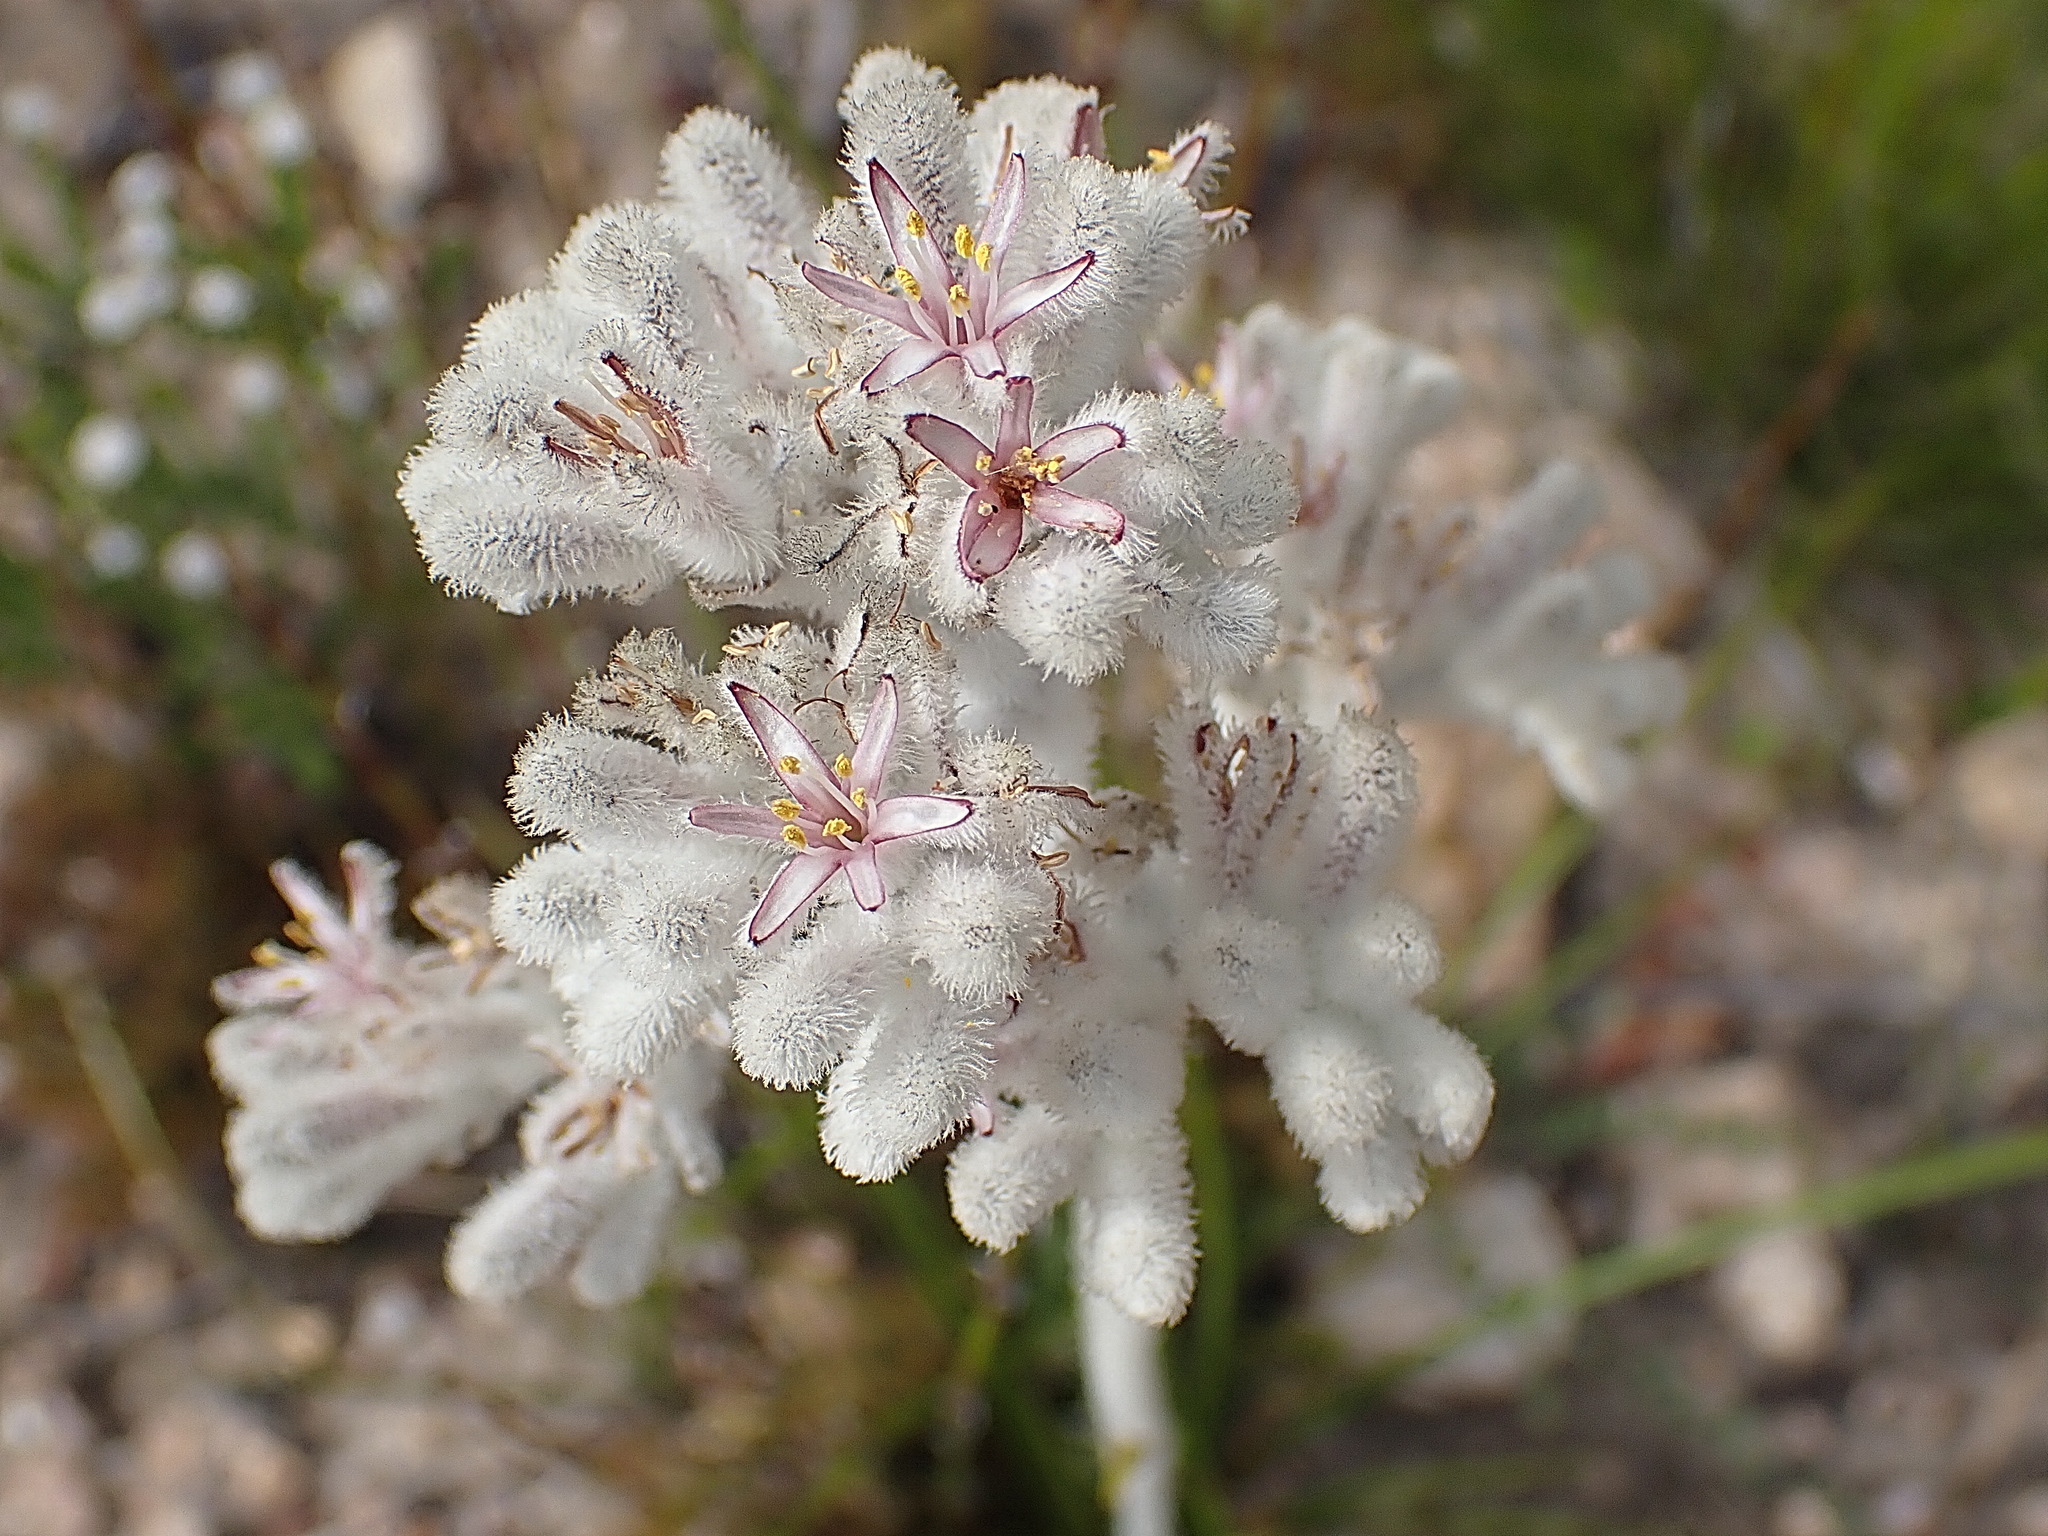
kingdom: Plantae
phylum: Tracheophyta
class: Liliopsida
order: Asparagales
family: Lanariaceae
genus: Lanaria
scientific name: Lanaria lanata
